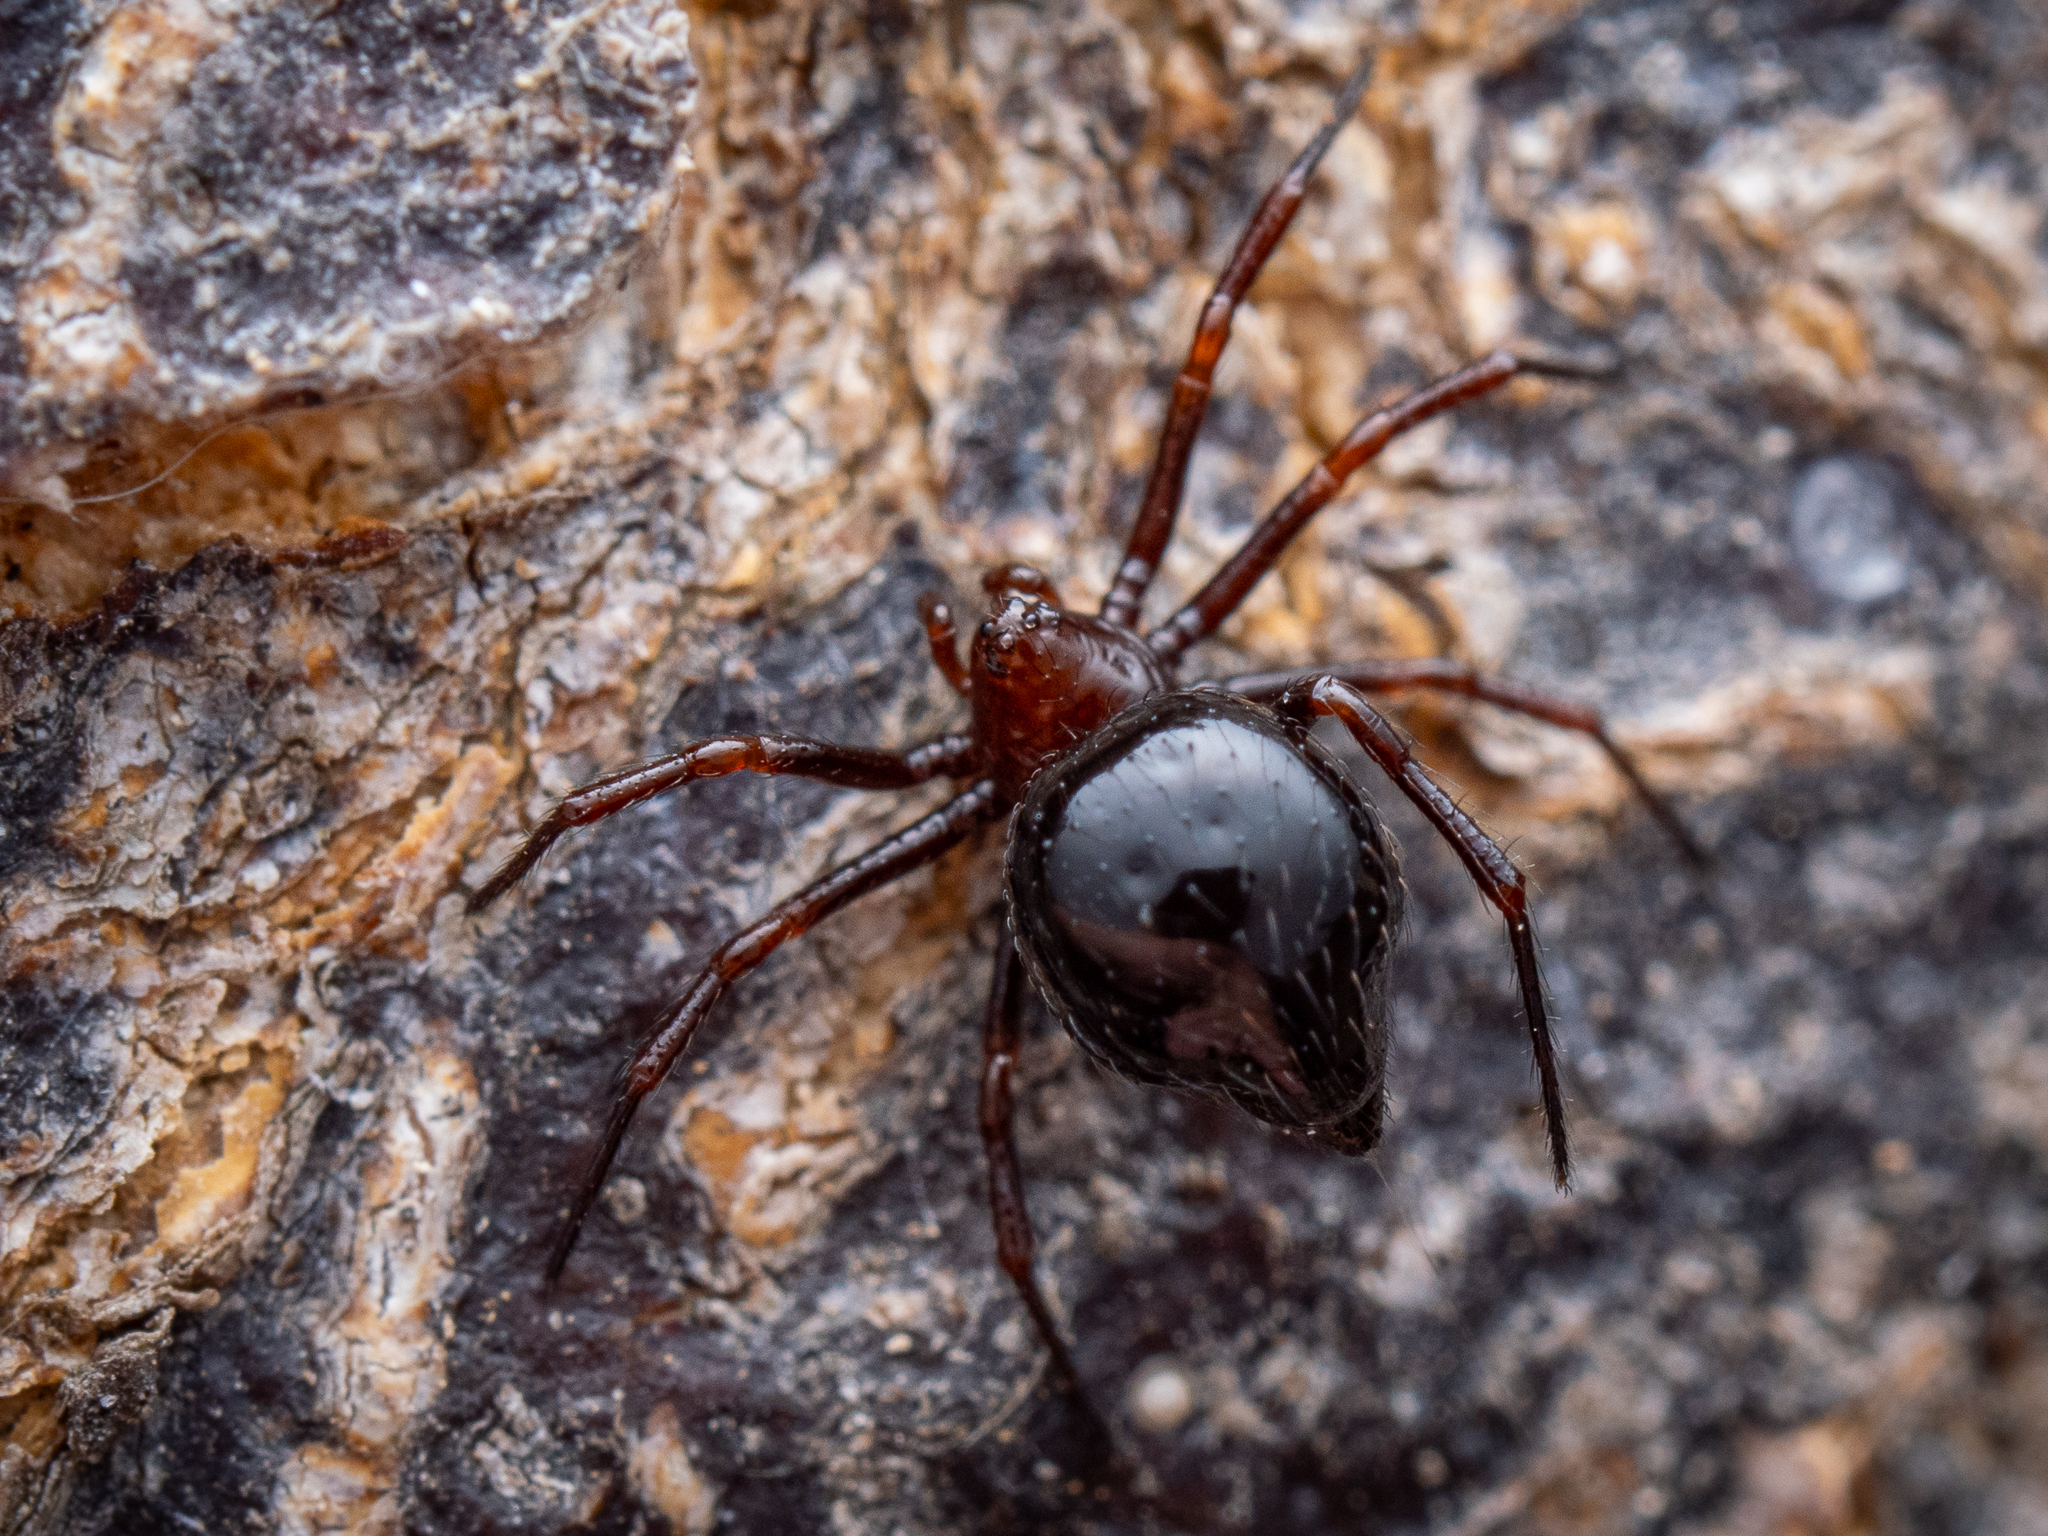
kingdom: Animalia
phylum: Arthropoda
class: Arachnida
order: Araneae
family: Theridiidae
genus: Euryopis
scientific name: Euryopis episinoides
